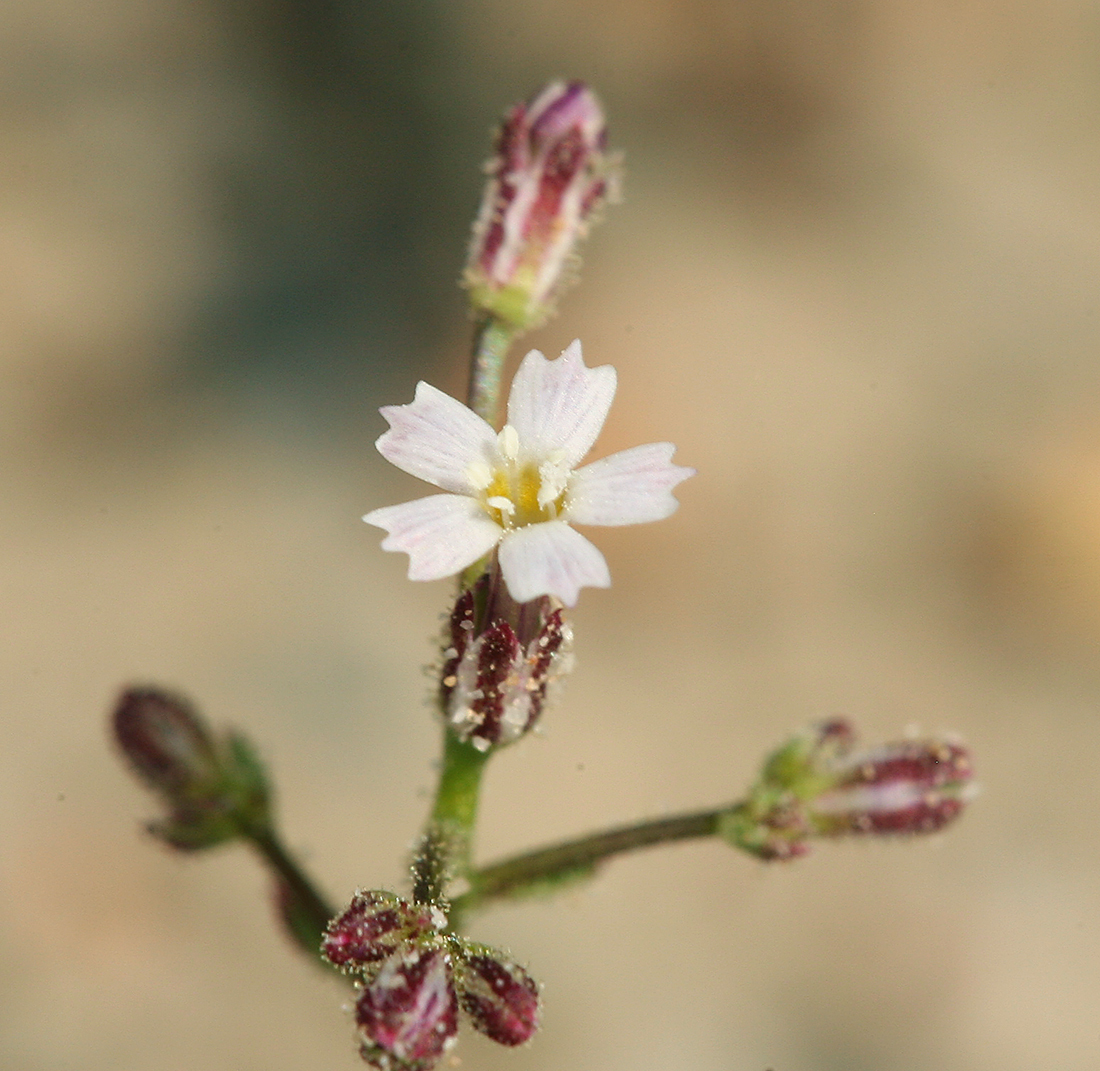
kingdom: Plantae
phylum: Tracheophyta
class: Magnoliopsida
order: Ericales
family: Polemoniaceae
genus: Aliciella
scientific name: Aliciella leptomeria
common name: Sand gilia
